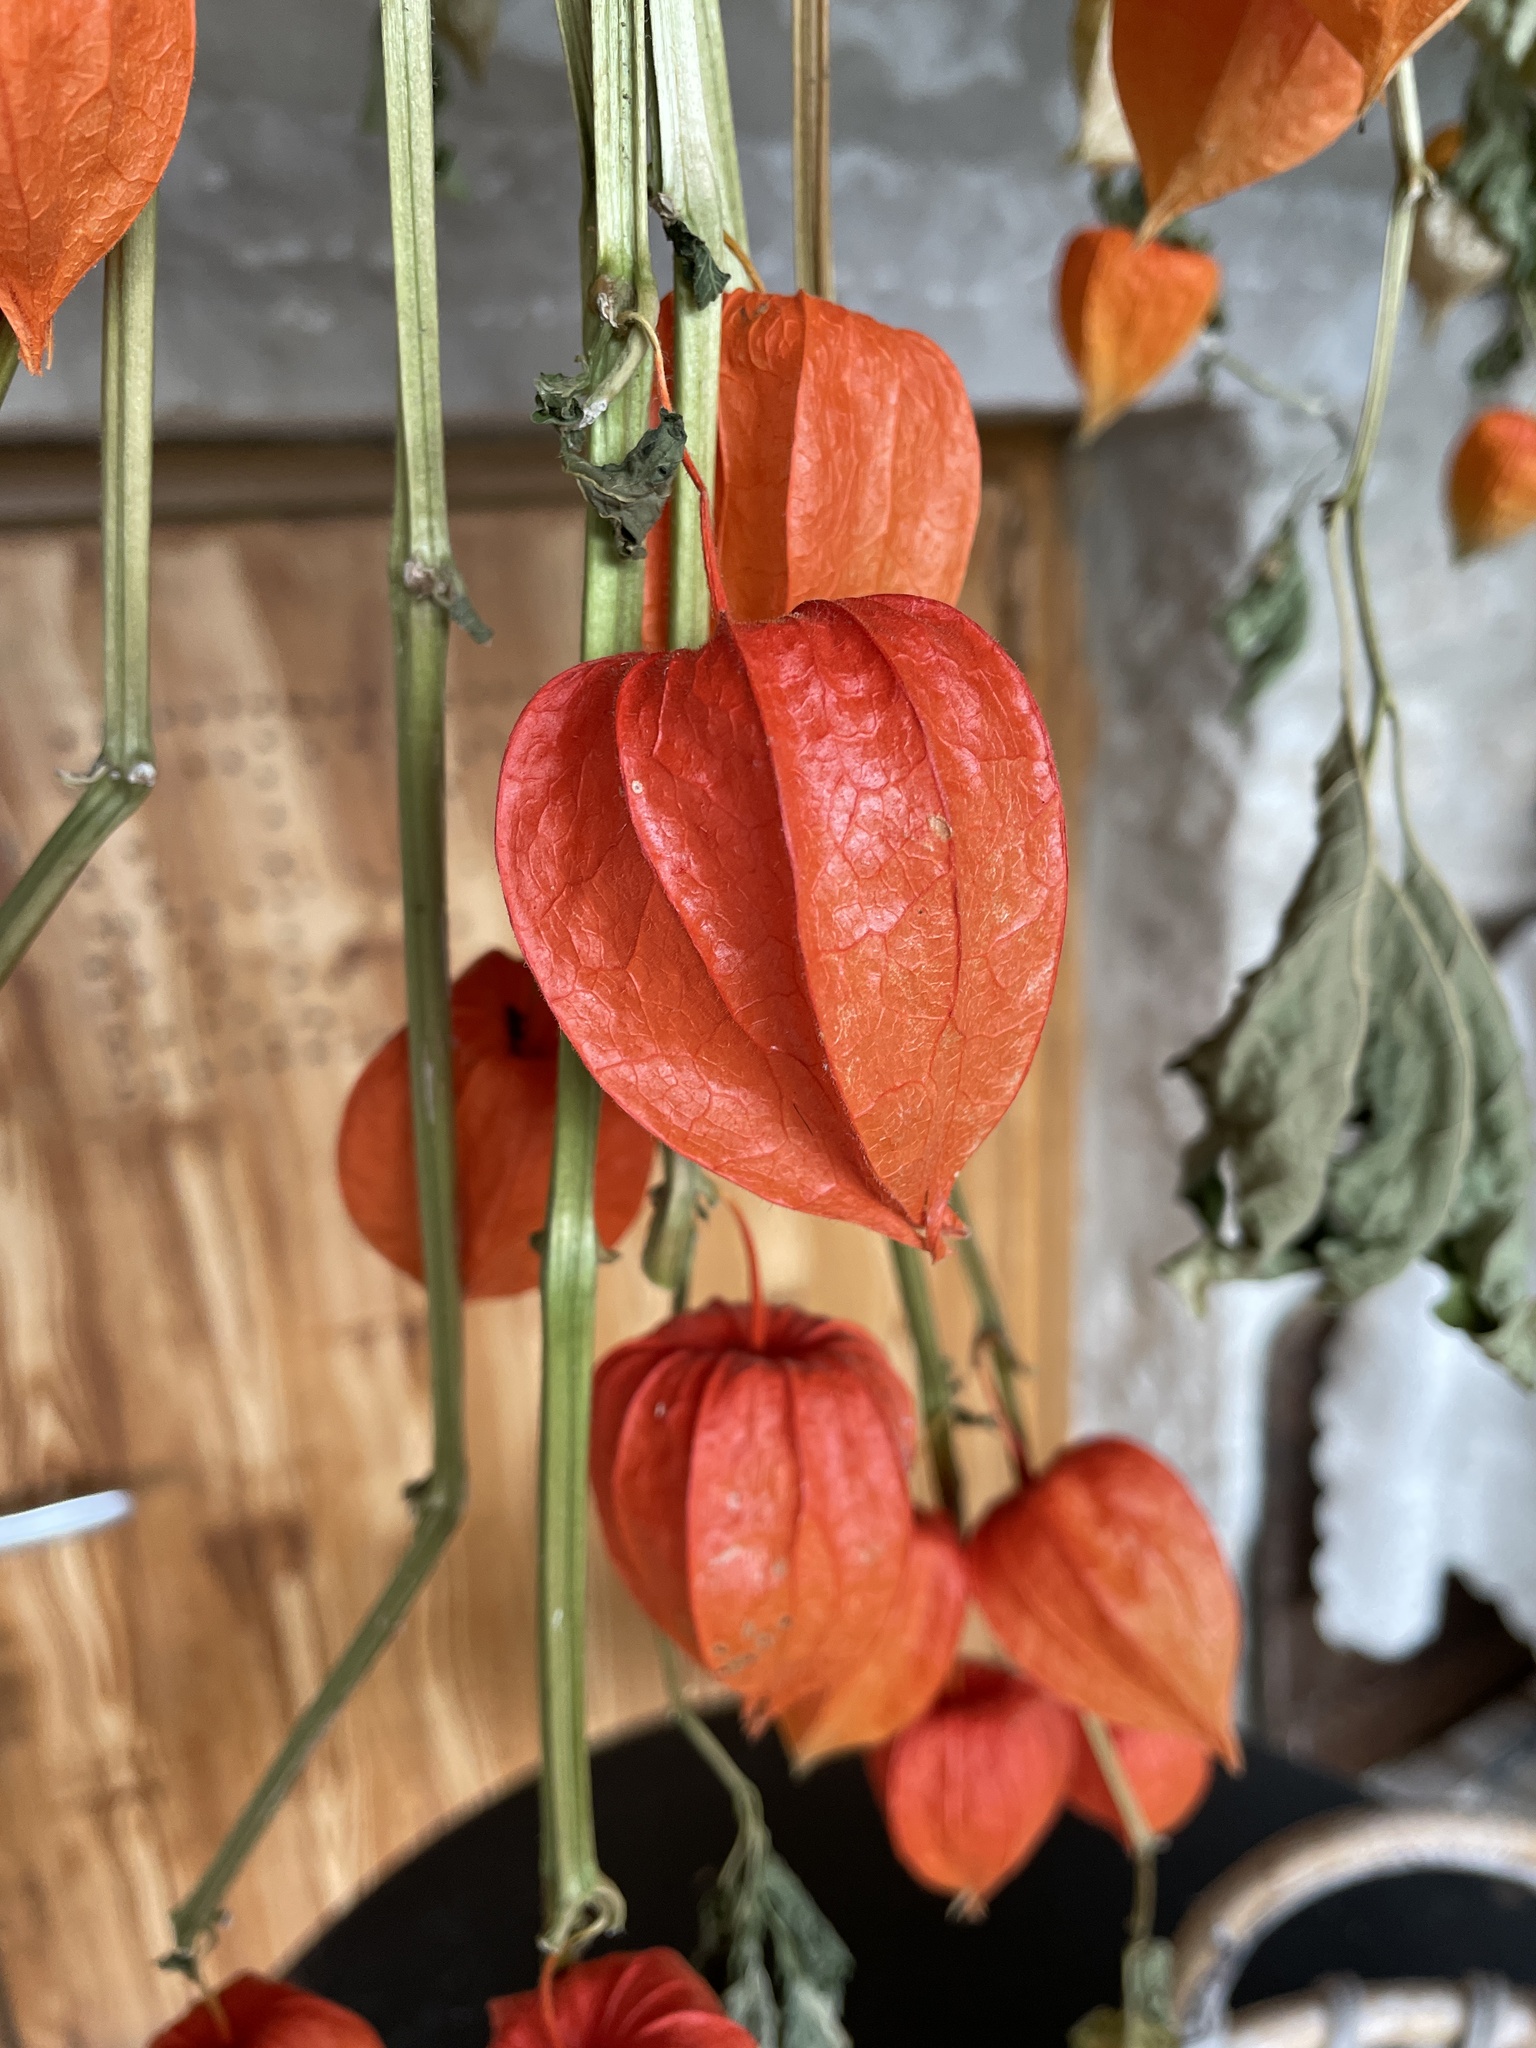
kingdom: Plantae
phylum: Tracheophyta
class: Magnoliopsida
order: Solanales
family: Solanaceae
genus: Alkekengi
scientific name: Alkekengi officinarum
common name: Japanese-lantern
